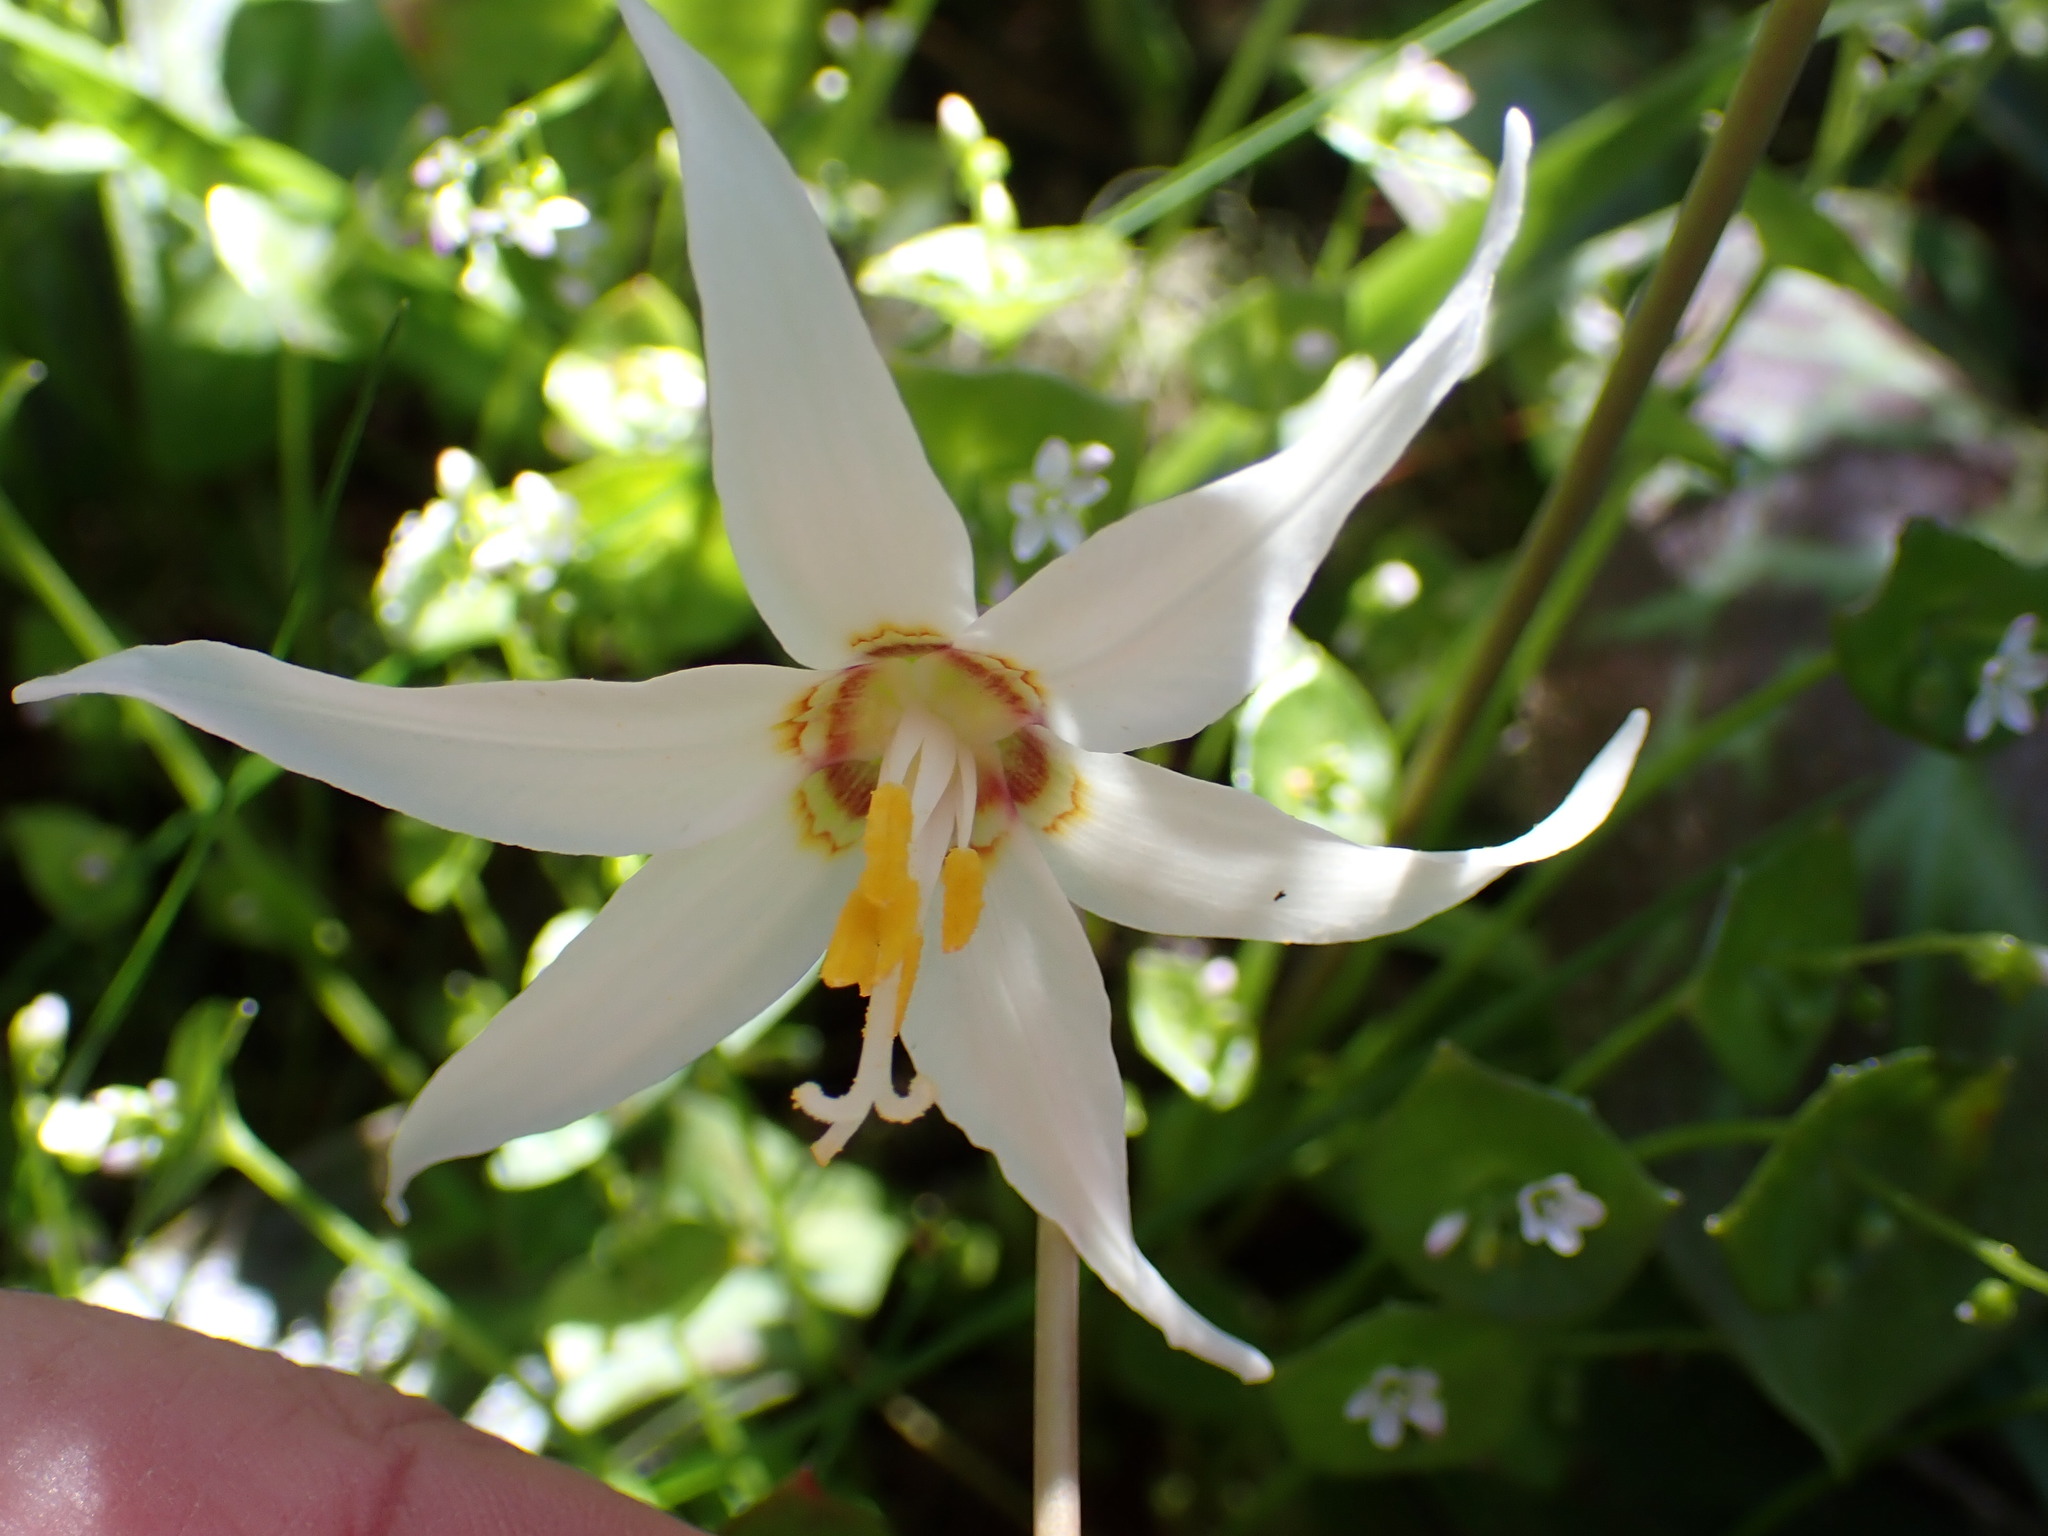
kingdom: Plantae
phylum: Tracheophyta
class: Liliopsida
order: Liliales
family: Liliaceae
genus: Erythronium
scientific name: Erythronium oregonum
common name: Giant adder's-tongue
